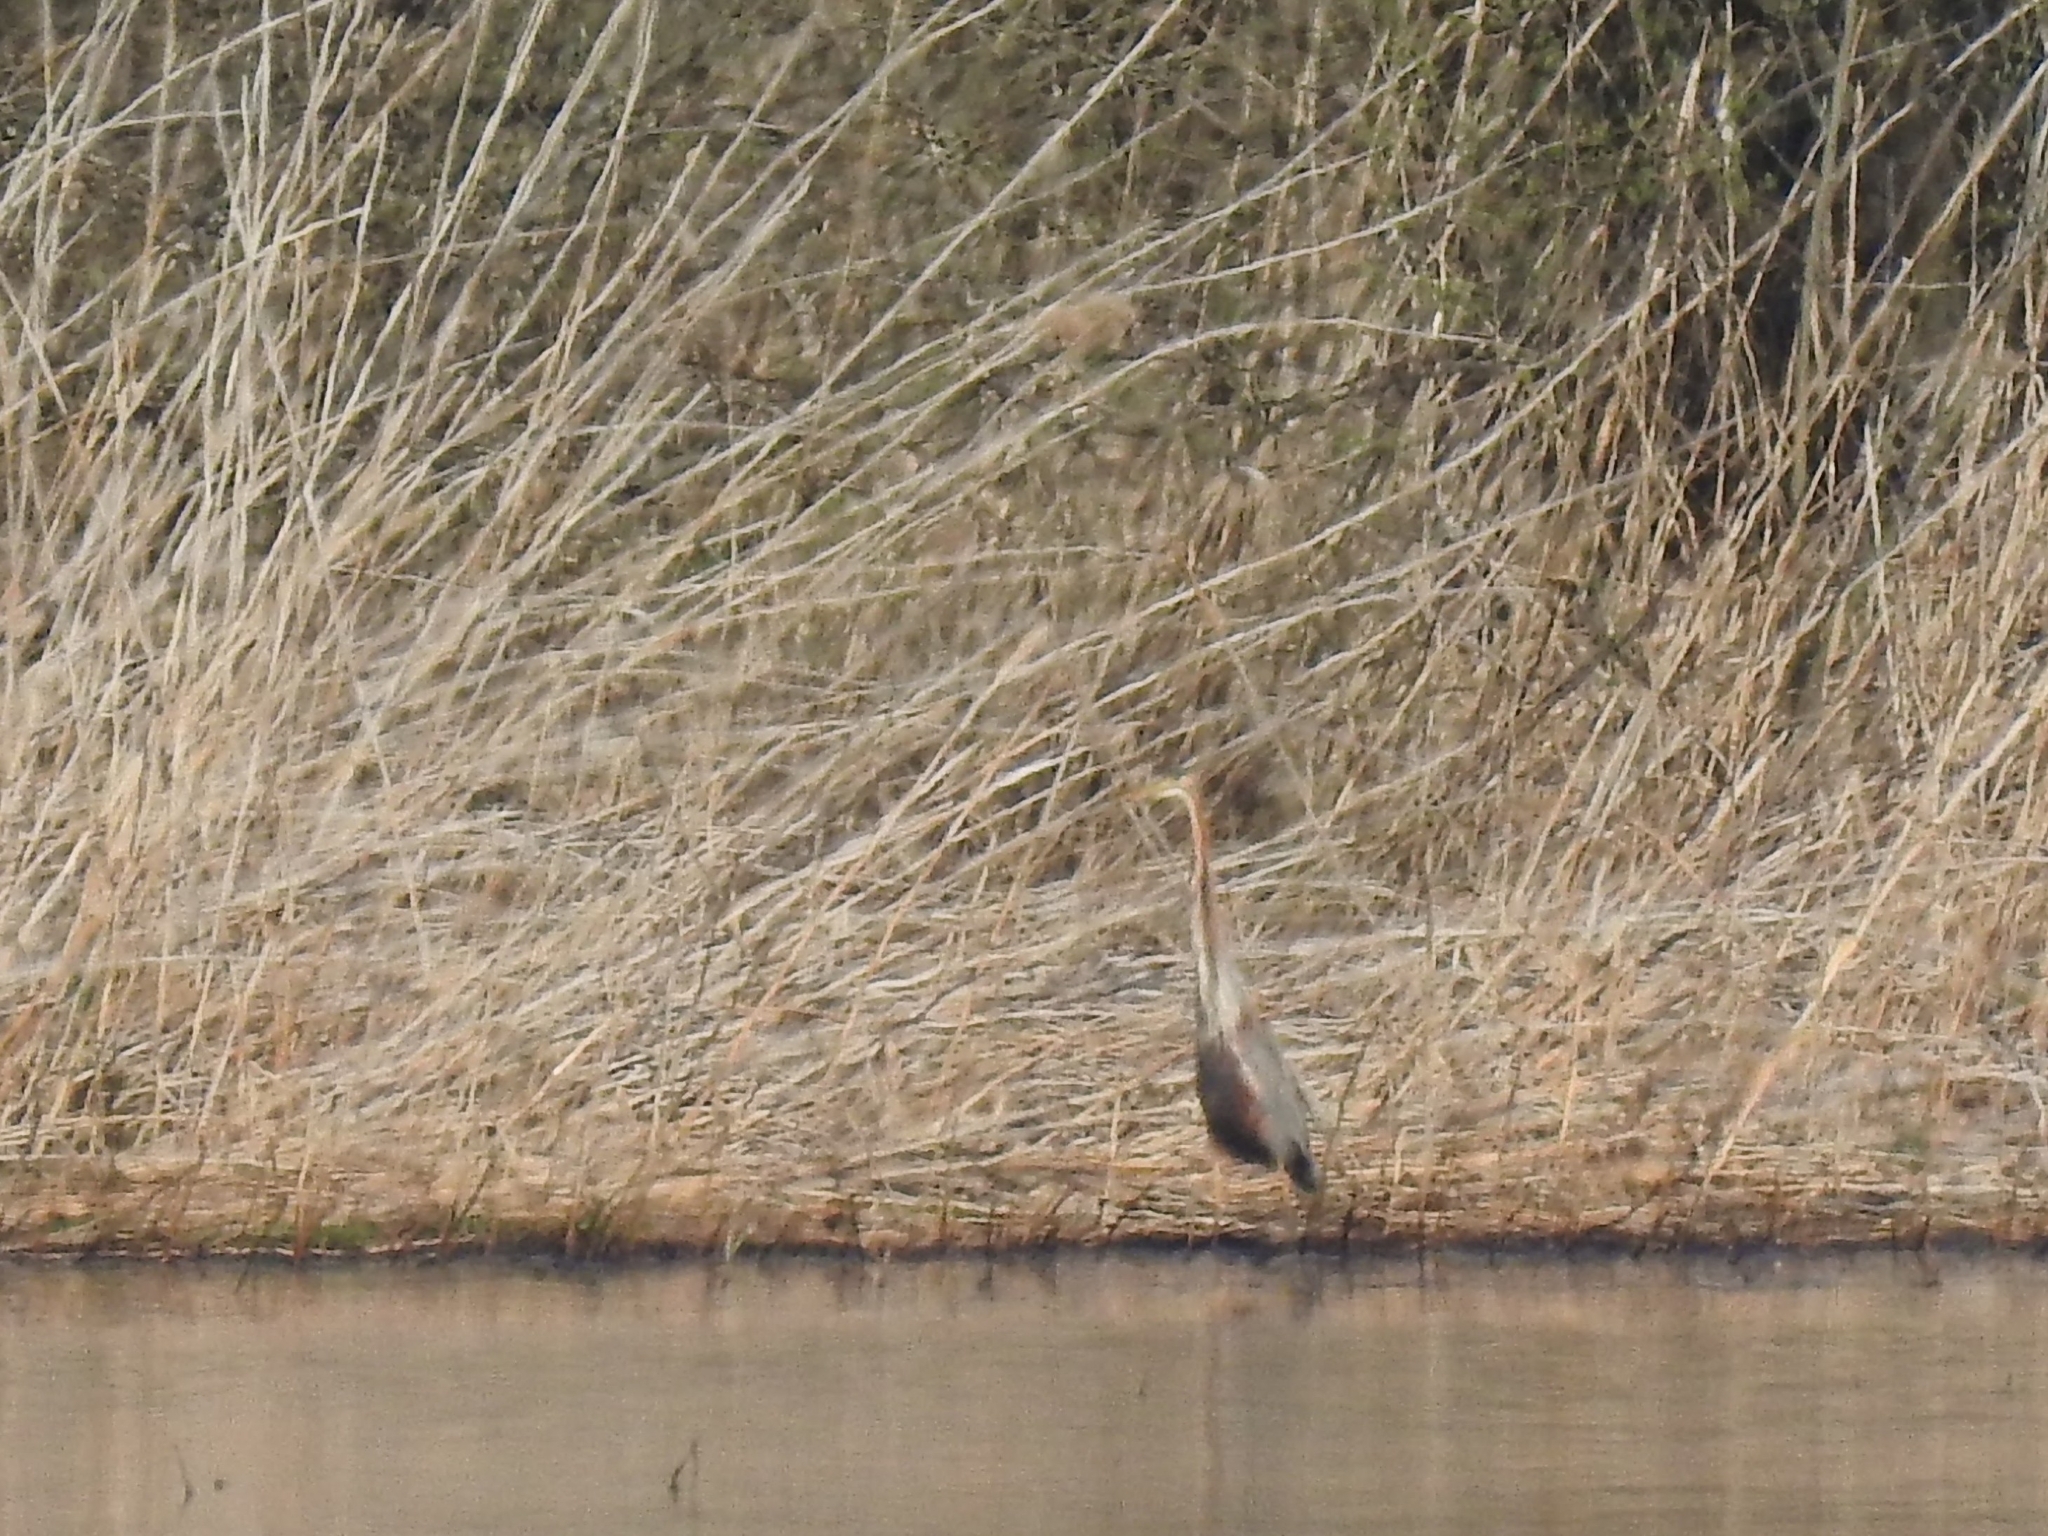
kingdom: Animalia
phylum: Chordata
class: Aves
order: Pelecaniformes
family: Ardeidae
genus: Ardea
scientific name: Ardea purpurea
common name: Purple heron
